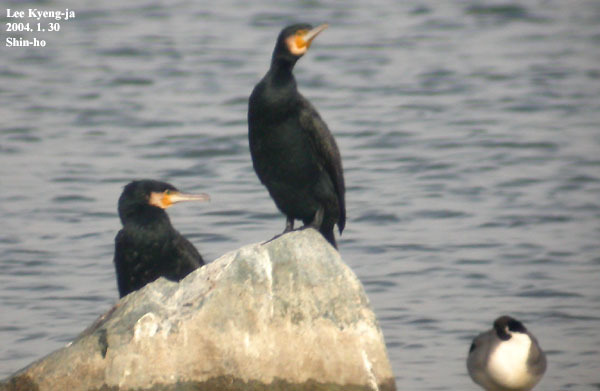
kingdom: Animalia
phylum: Chordata
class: Aves
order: Suliformes
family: Phalacrocoracidae
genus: Phalacrocorax
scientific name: Phalacrocorax carbo
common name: Great cormorant
